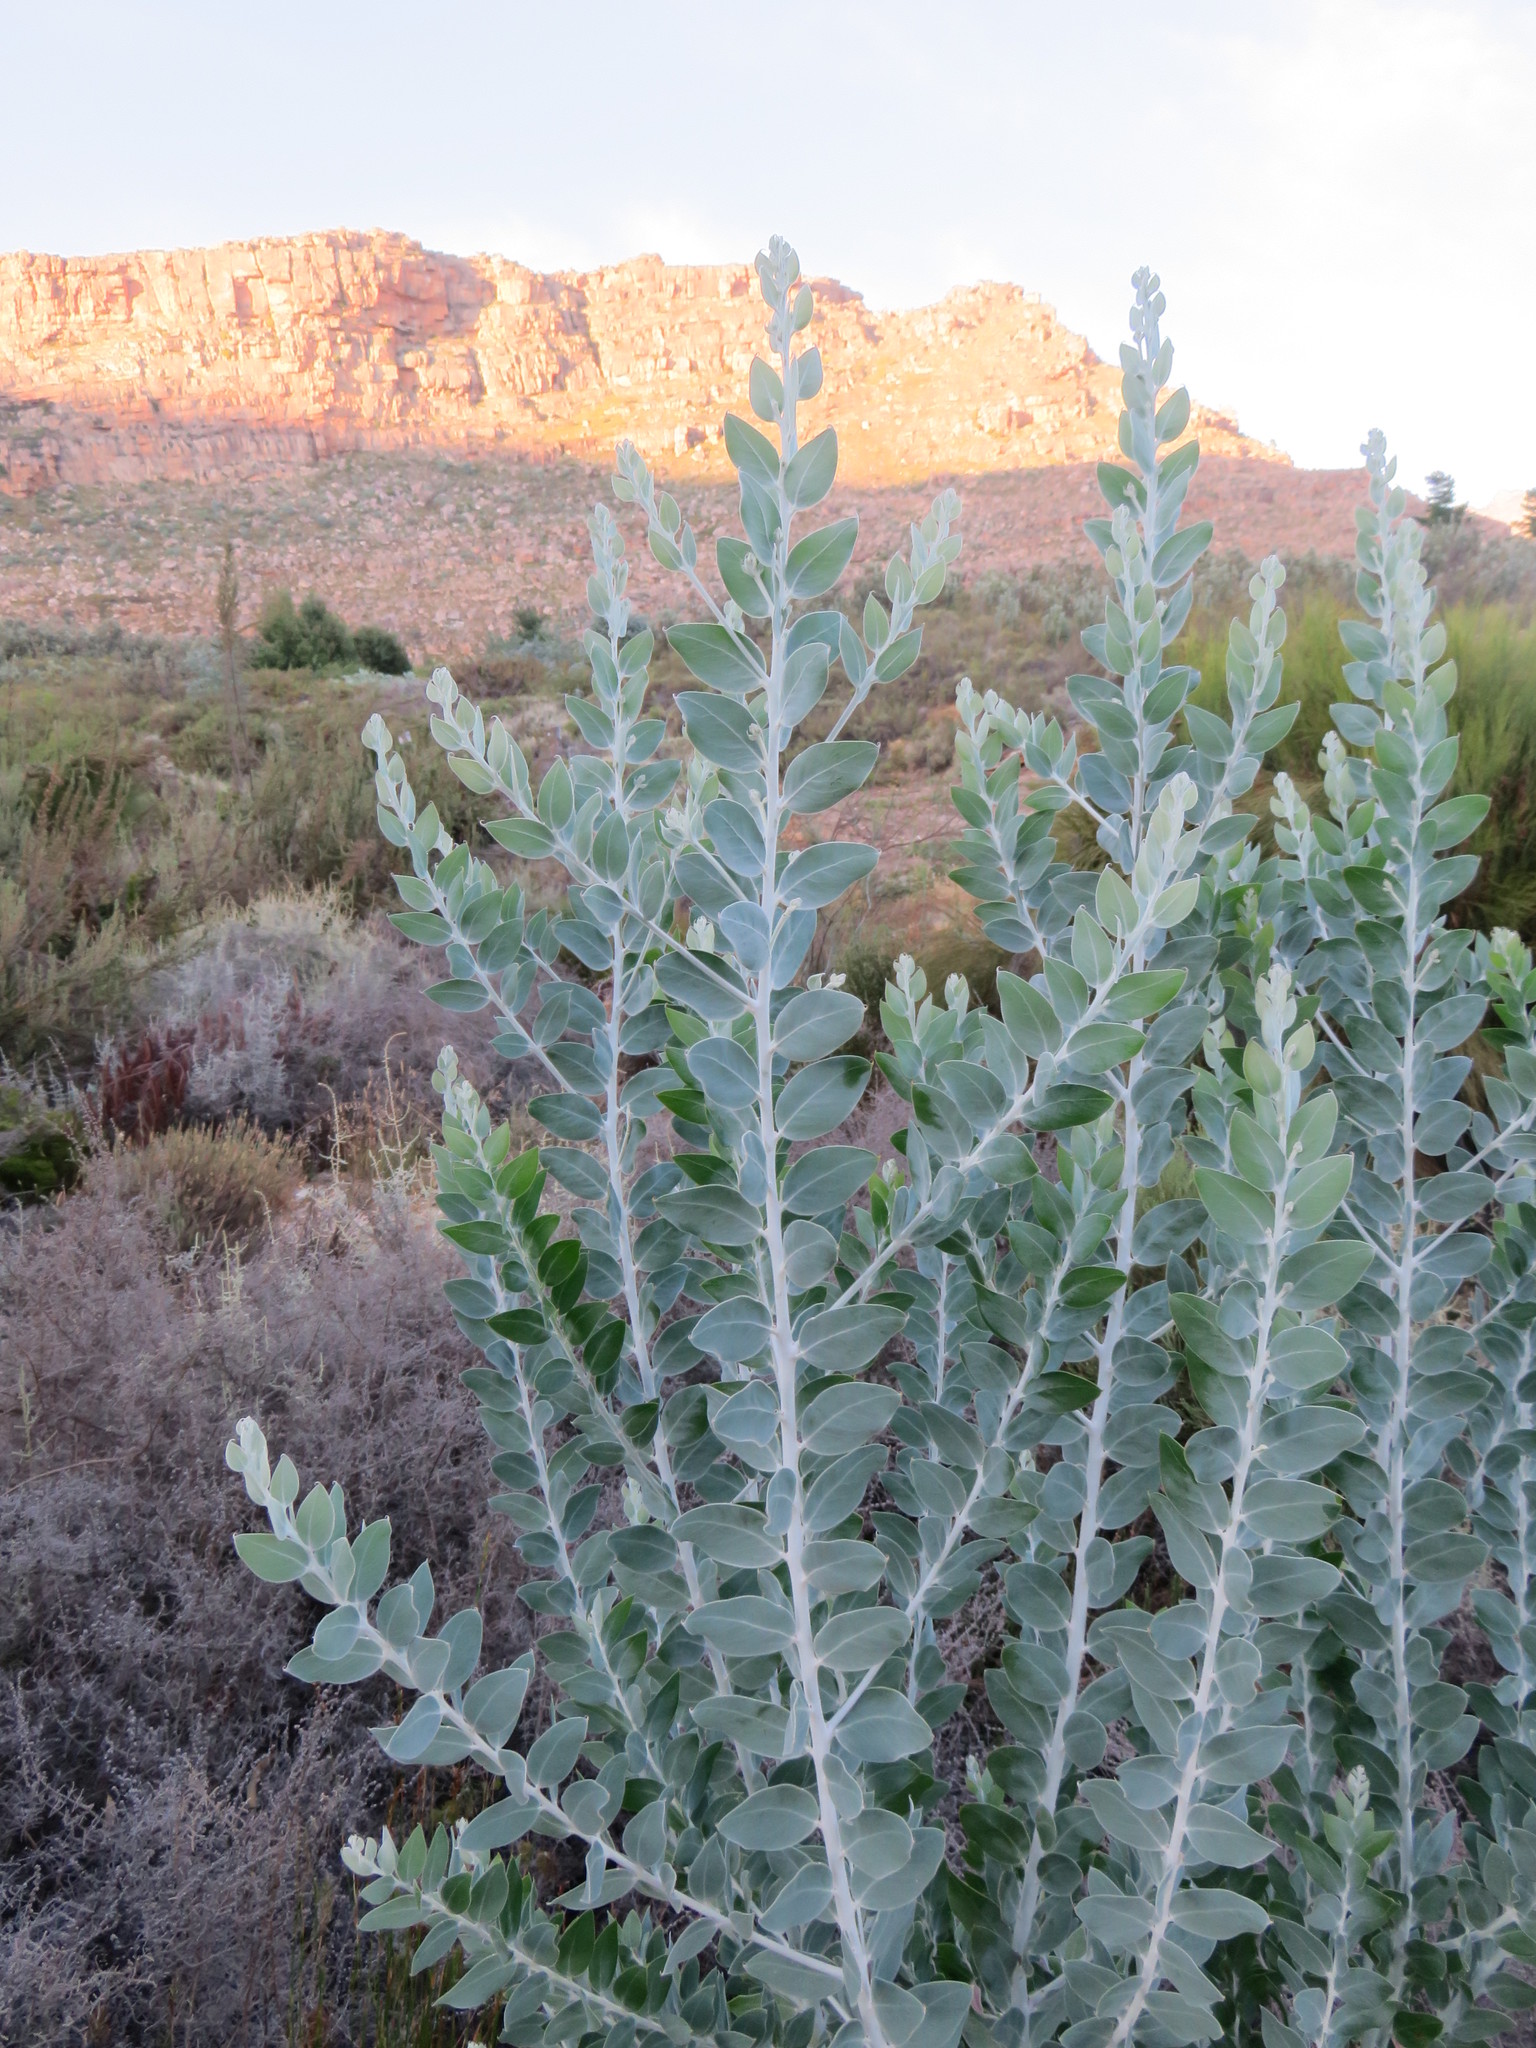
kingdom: Plantae
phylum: Tracheophyta
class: Magnoliopsida
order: Fabales
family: Fabaceae
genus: Acacia
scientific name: Acacia podalyriifolia
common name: Pearl wattle
